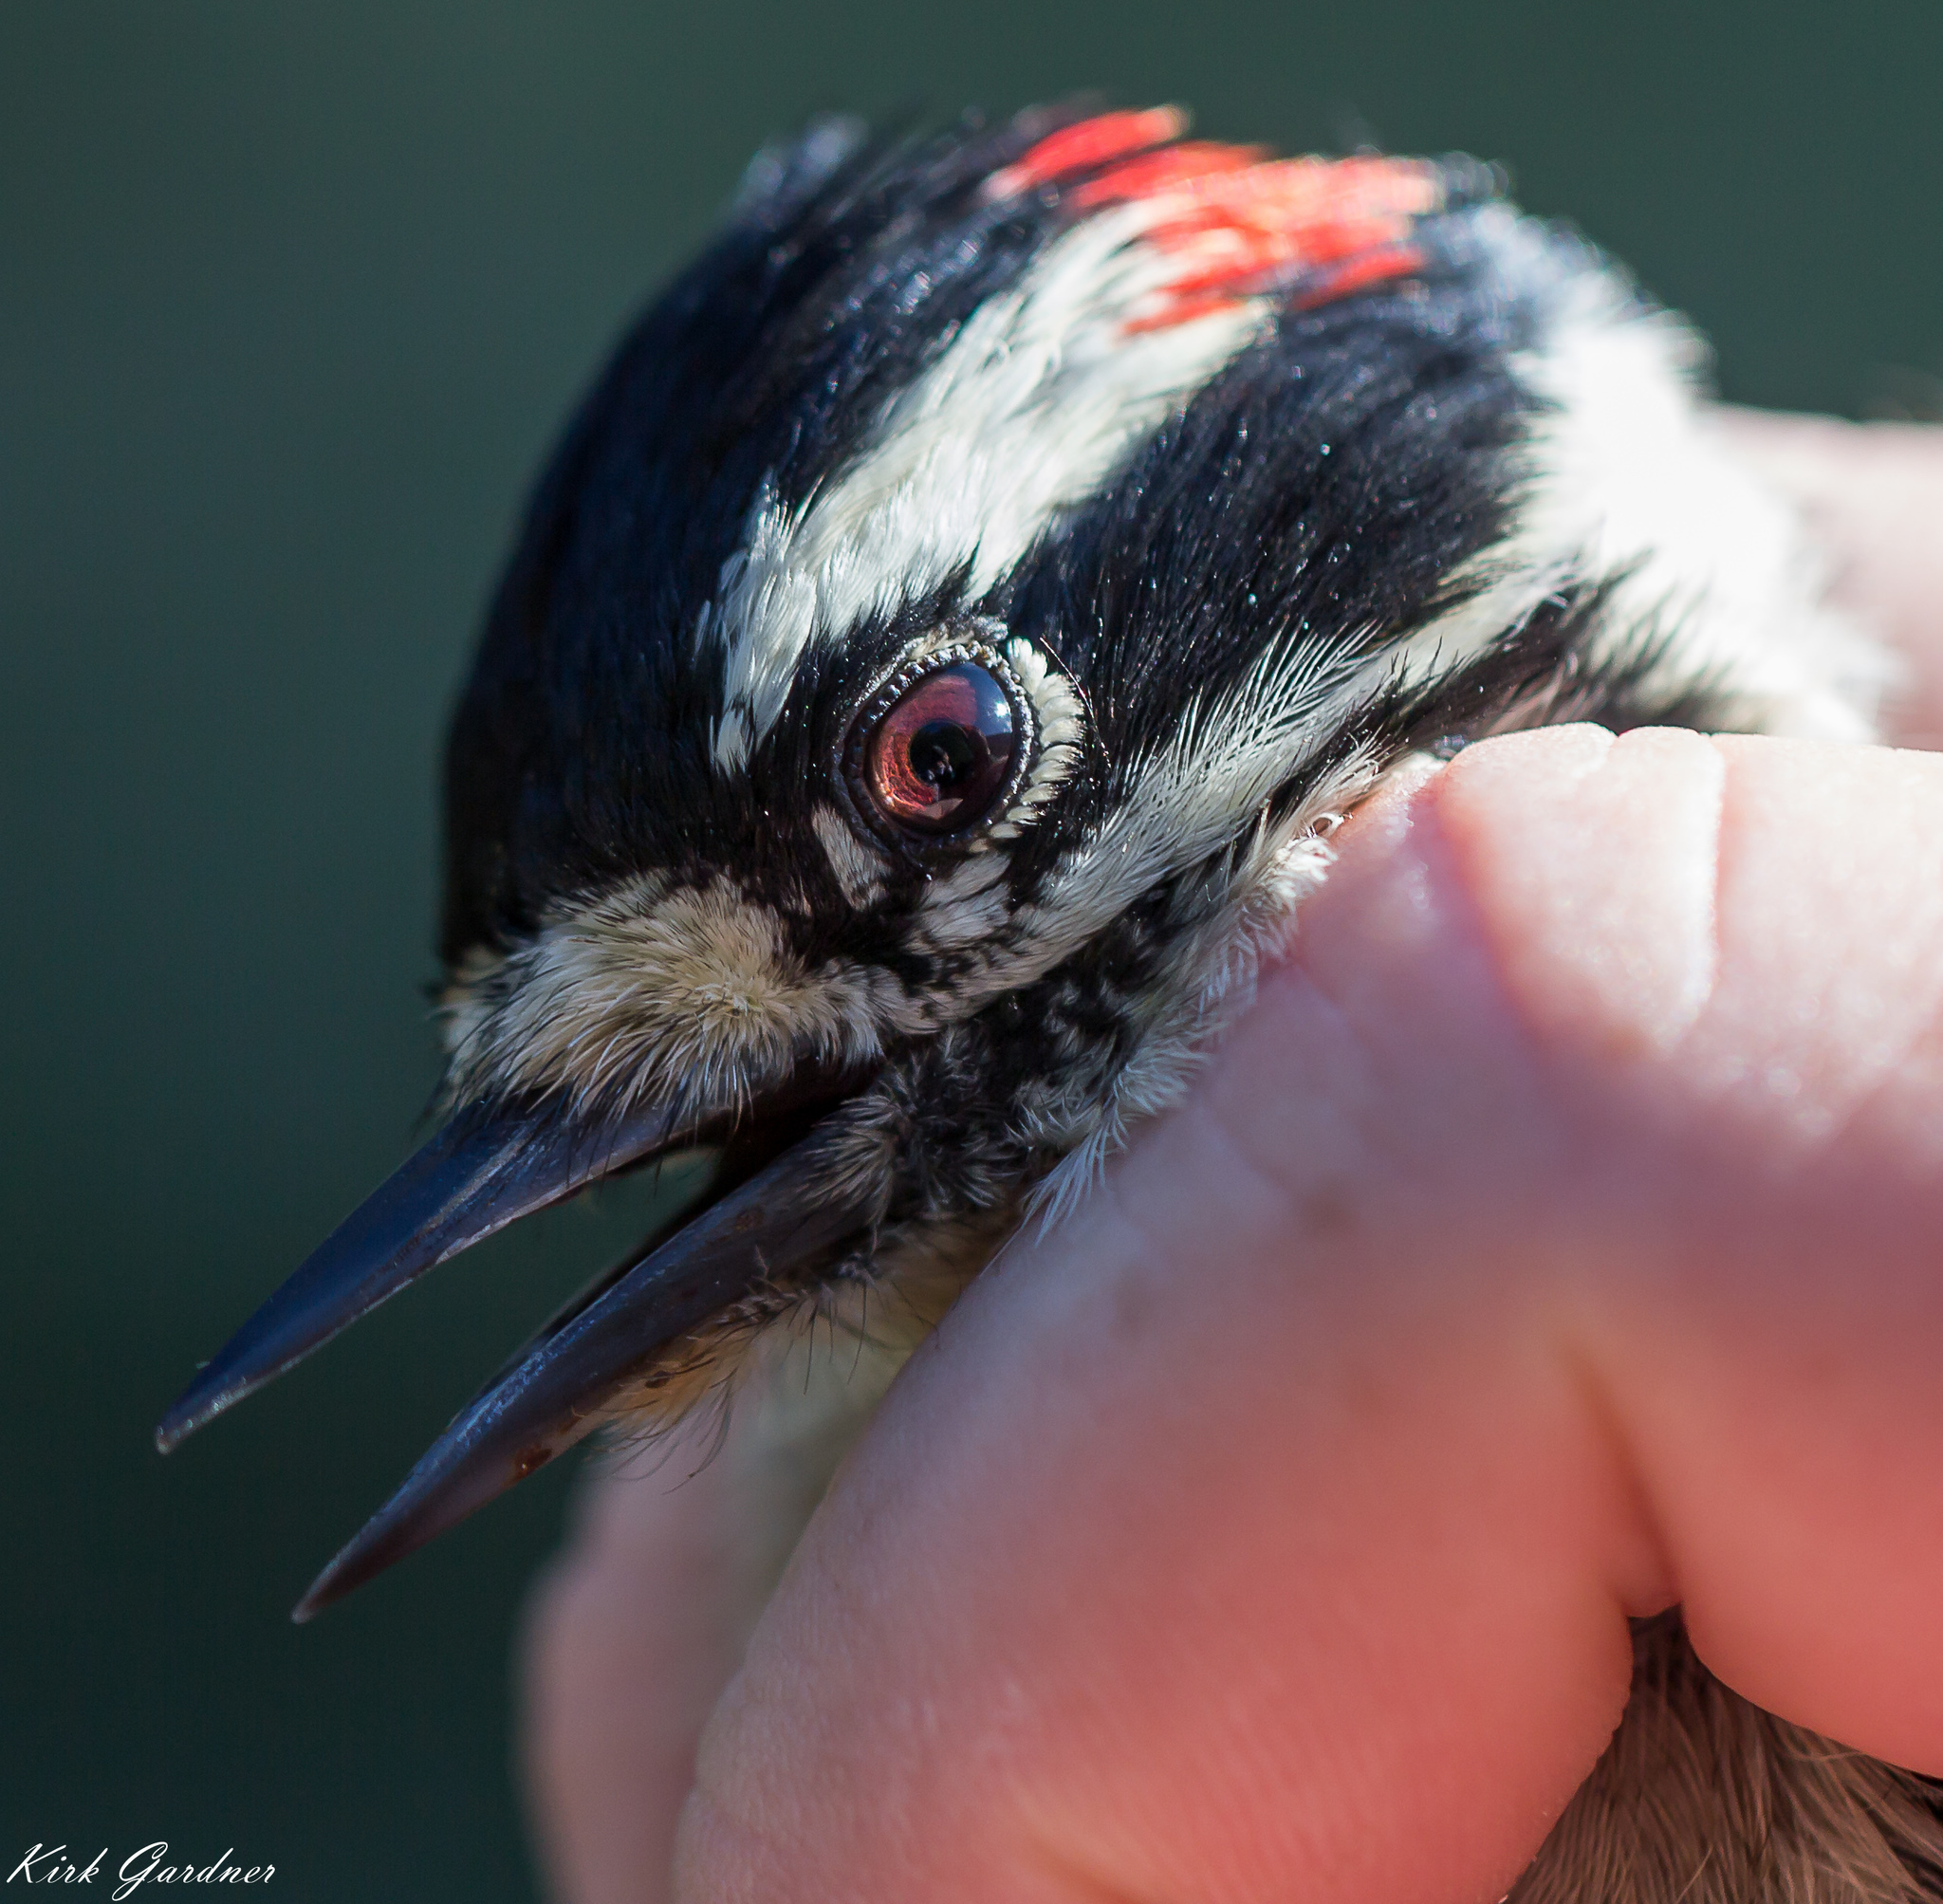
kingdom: Animalia
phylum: Chordata
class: Aves
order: Piciformes
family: Picidae
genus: Dryobates
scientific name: Dryobates pubescens
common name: Downy woodpecker
